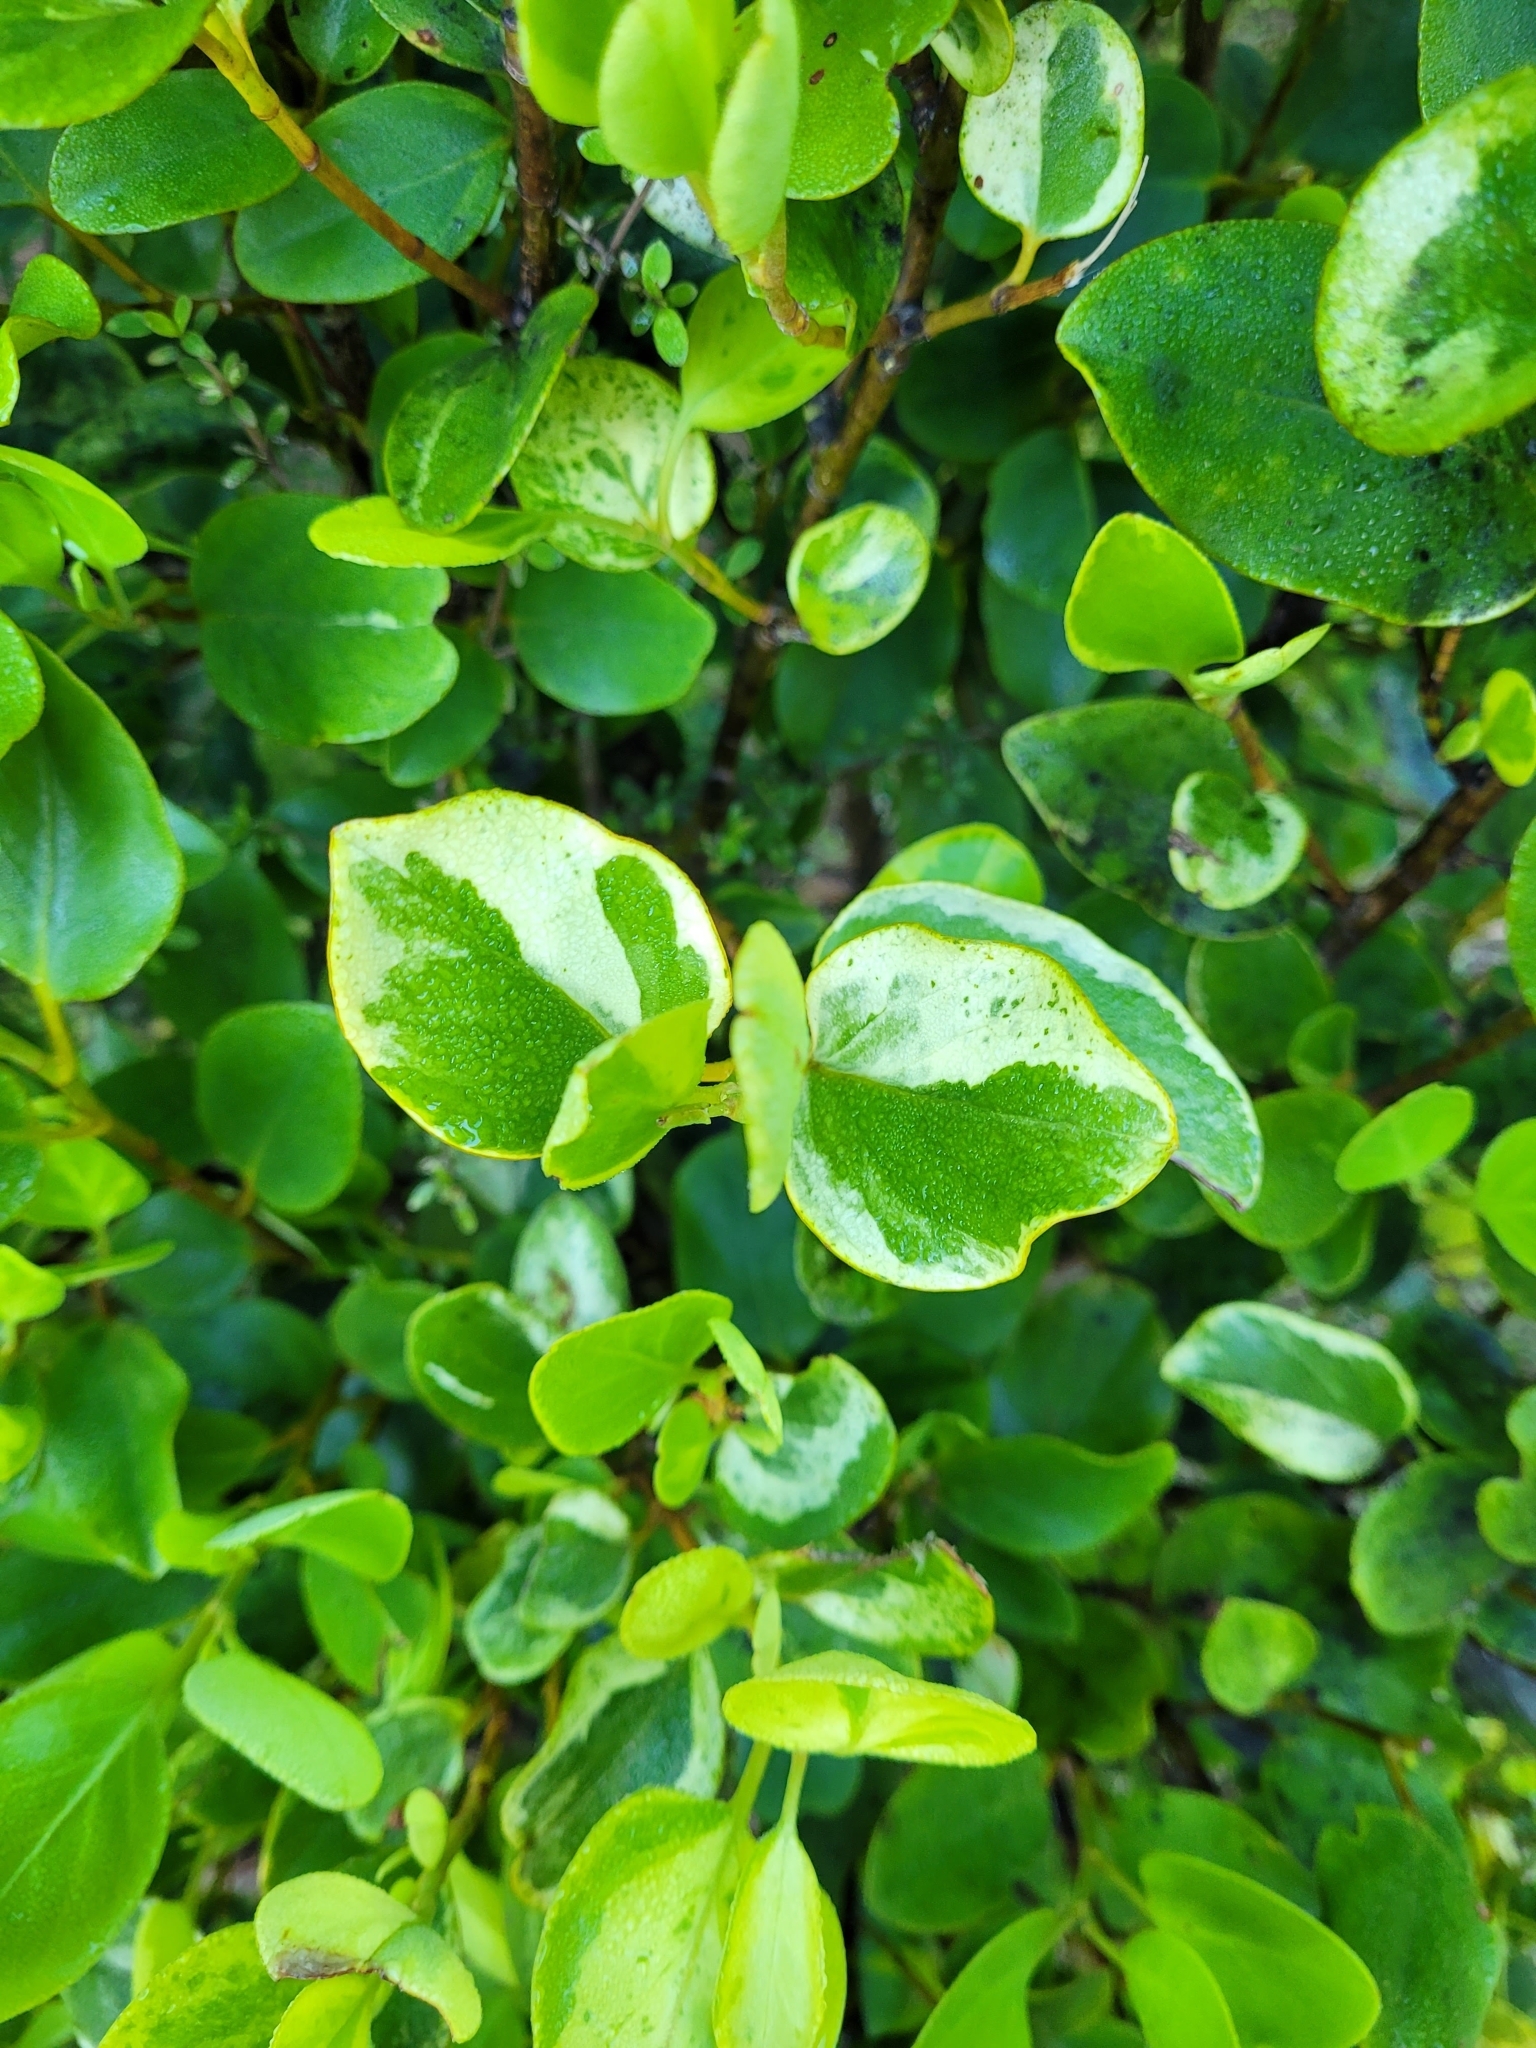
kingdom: Plantae
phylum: Tracheophyta
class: Magnoliopsida
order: Apiales
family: Griseliniaceae
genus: Griselinia
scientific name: Griselinia littoralis
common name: New zealand broadleaf
